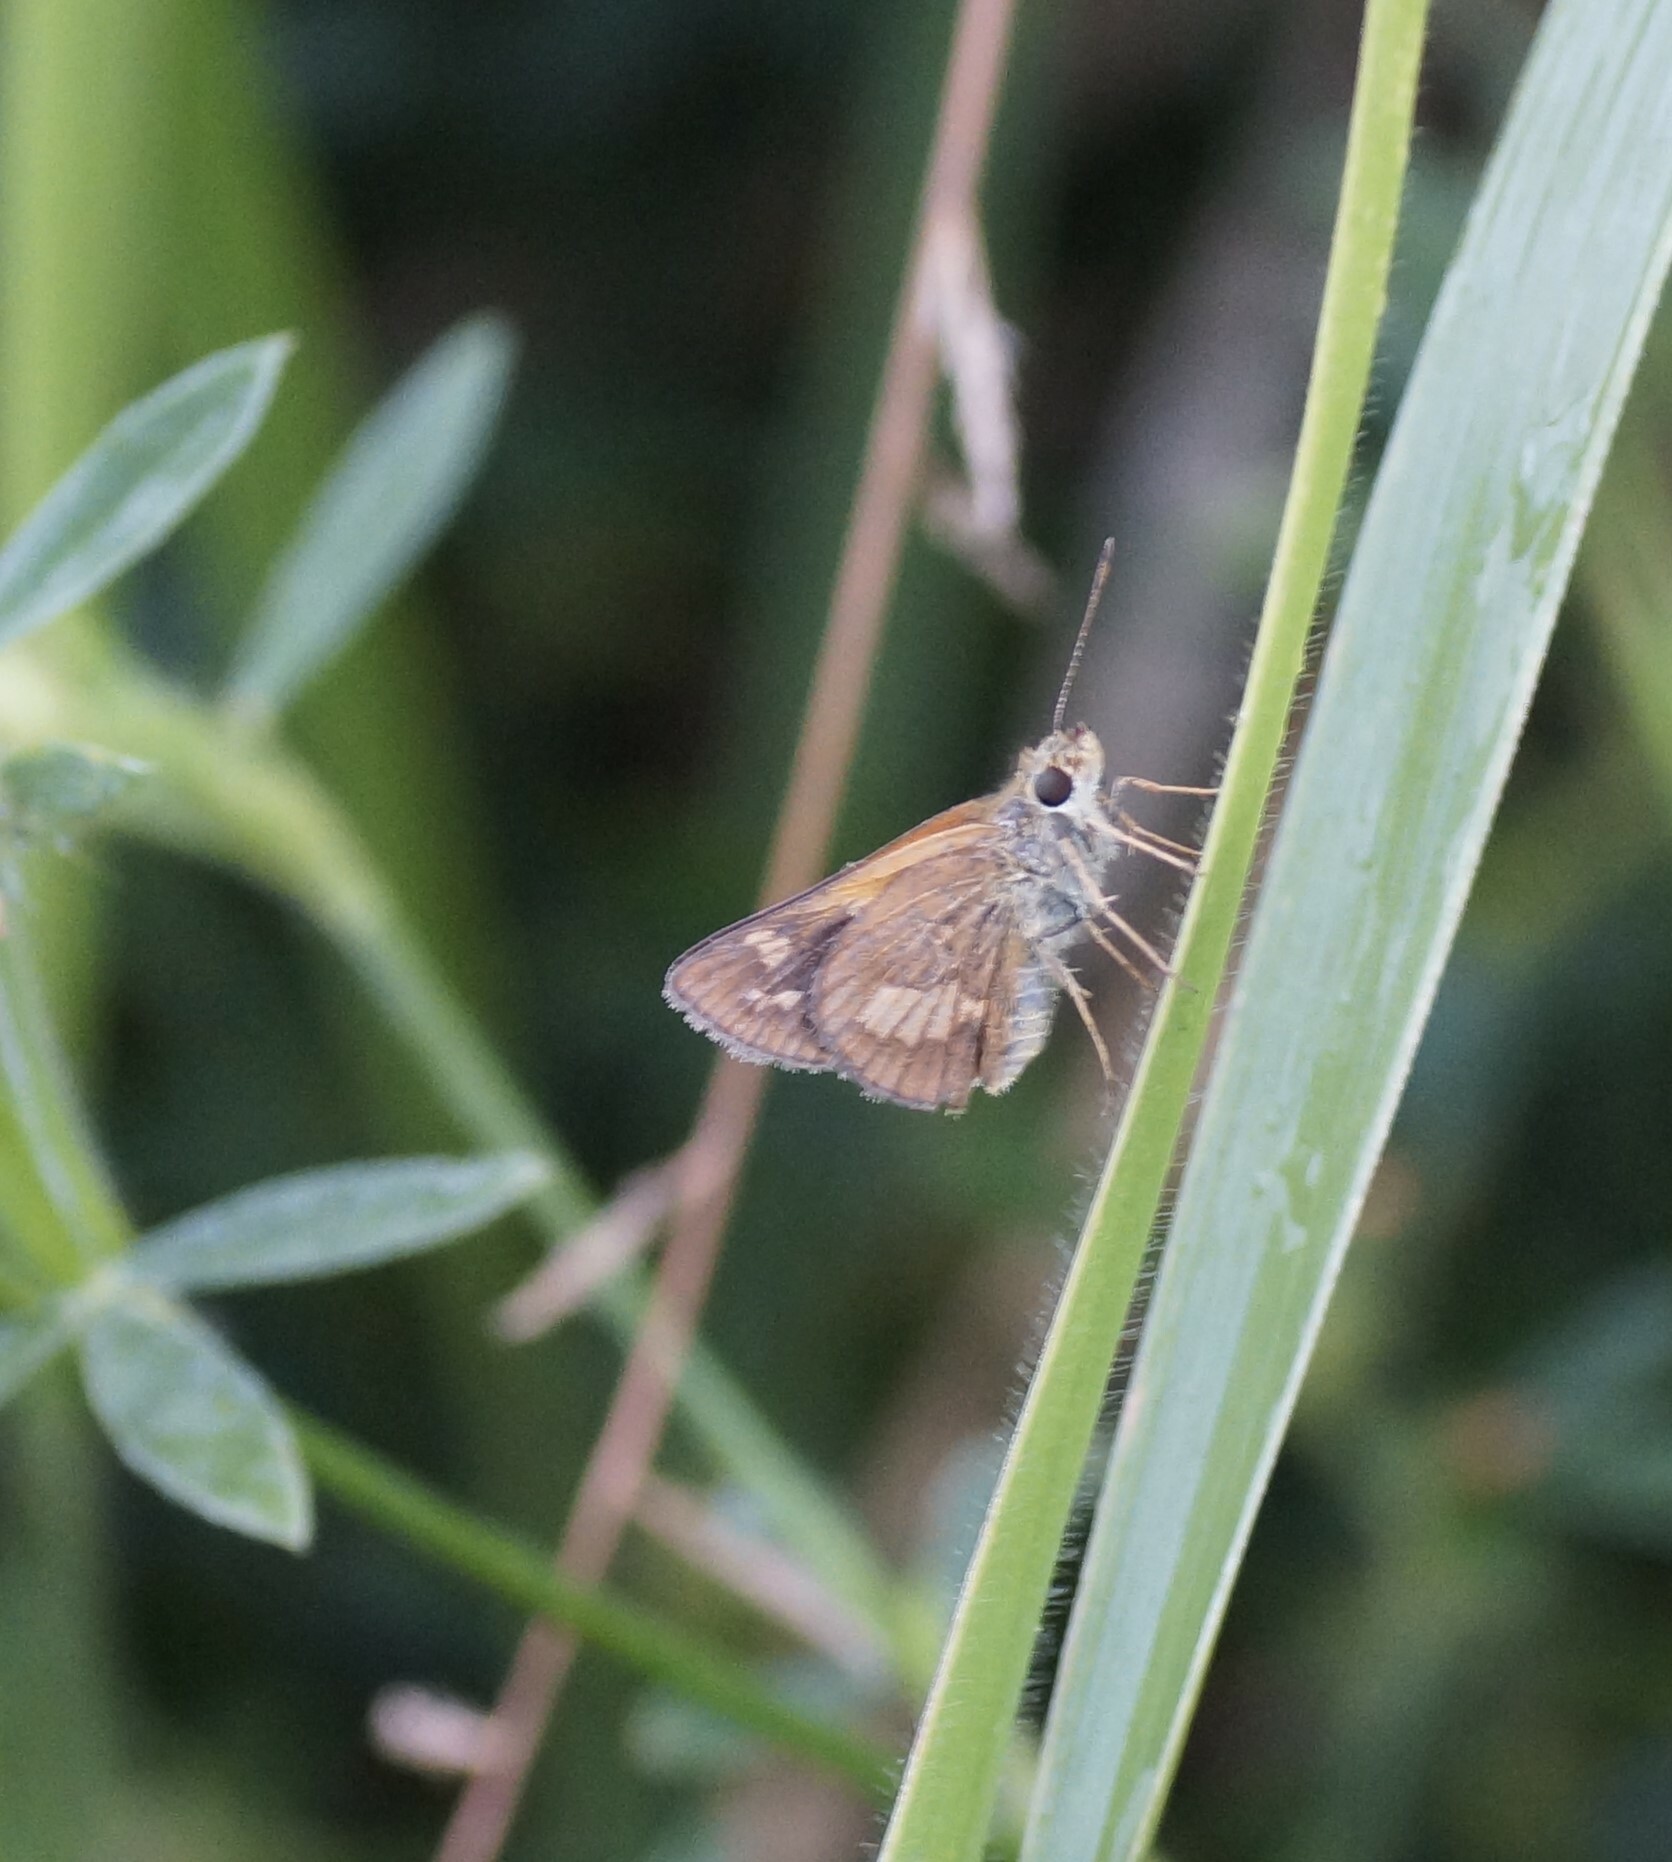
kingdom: Animalia
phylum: Arthropoda
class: Insecta
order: Lepidoptera
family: Hesperiidae
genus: Arrhenes
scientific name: Arrhenes dschilus
